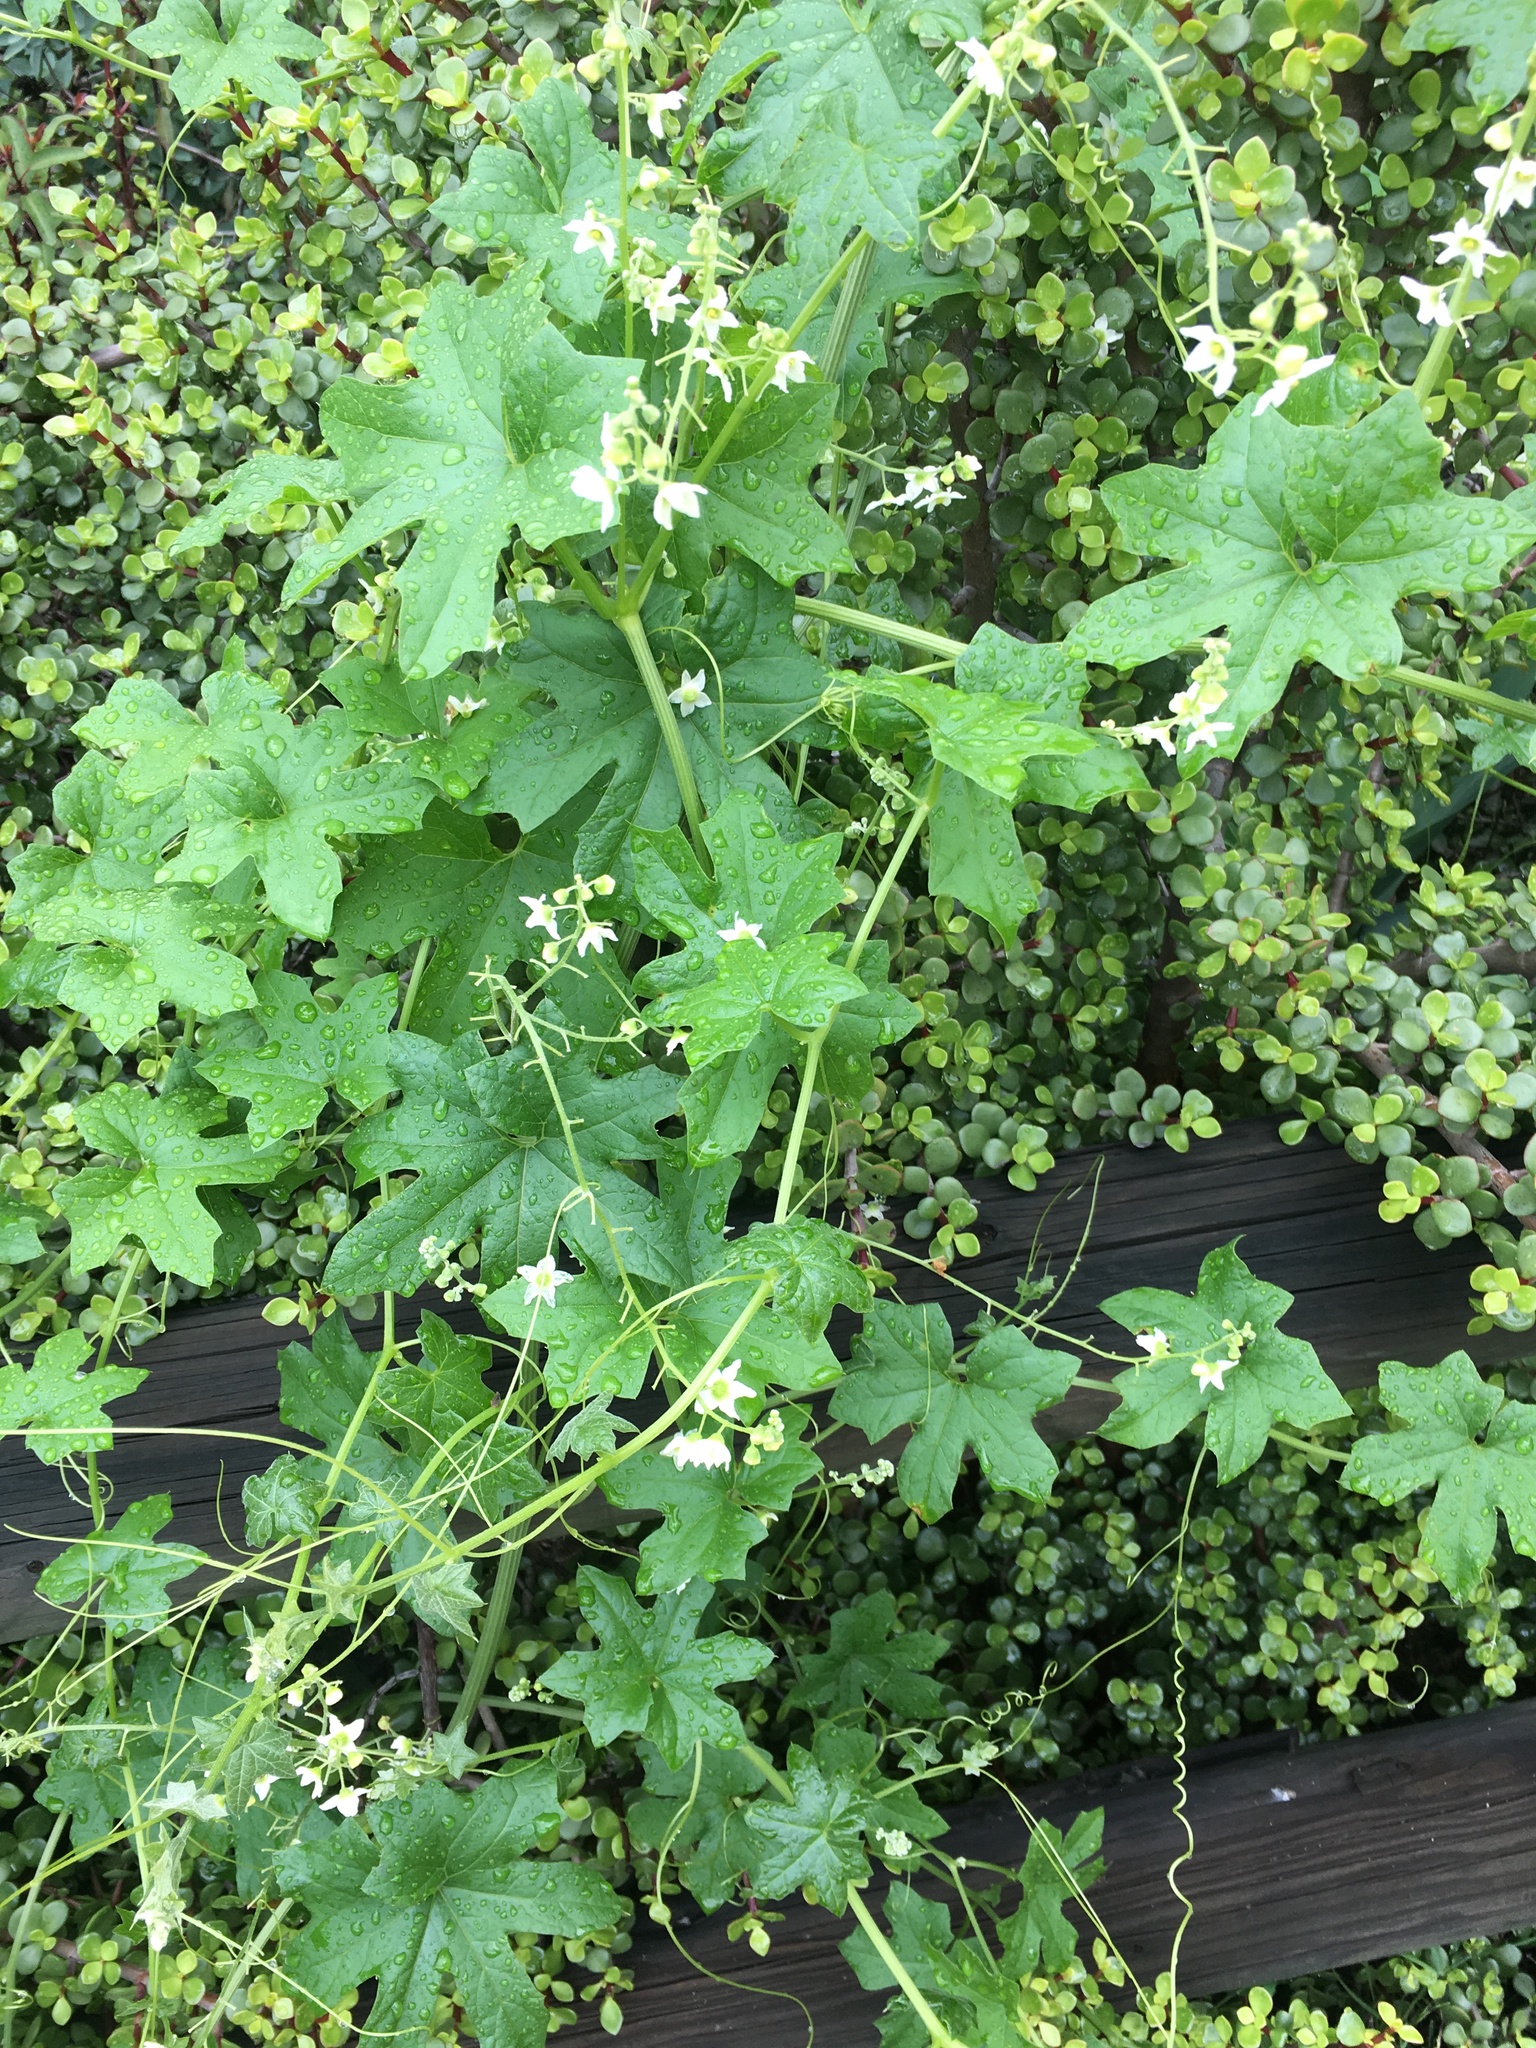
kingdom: Plantae
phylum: Tracheophyta
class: Magnoliopsida
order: Cucurbitales
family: Cucurbitaceae
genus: Marah
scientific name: Marah macrocarpa
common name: Cucamonga manroot
